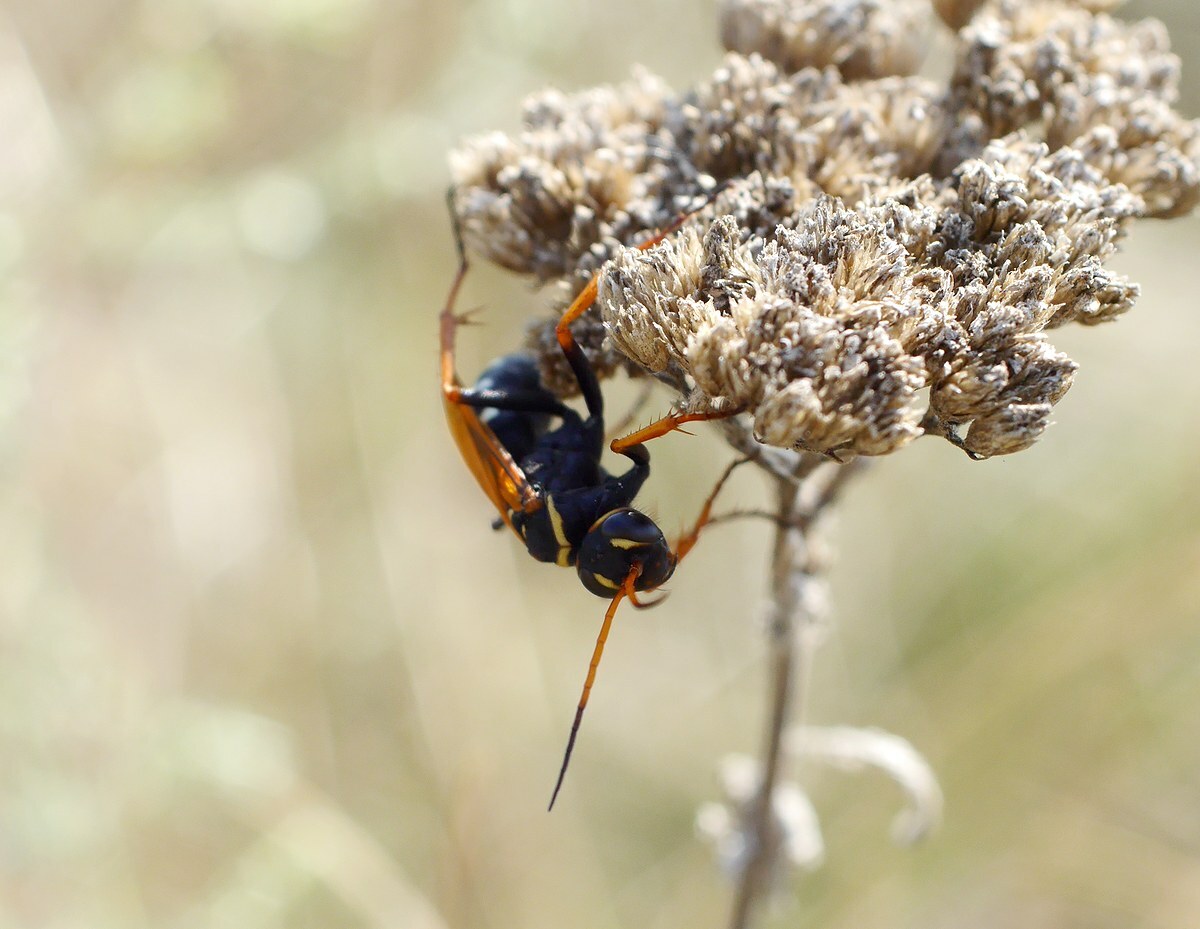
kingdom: Animalia
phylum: Arthropoda
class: Insecta
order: Hymenoptera
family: Pompilidae
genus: Parabatozonus
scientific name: Parabatozonus lacerticida
